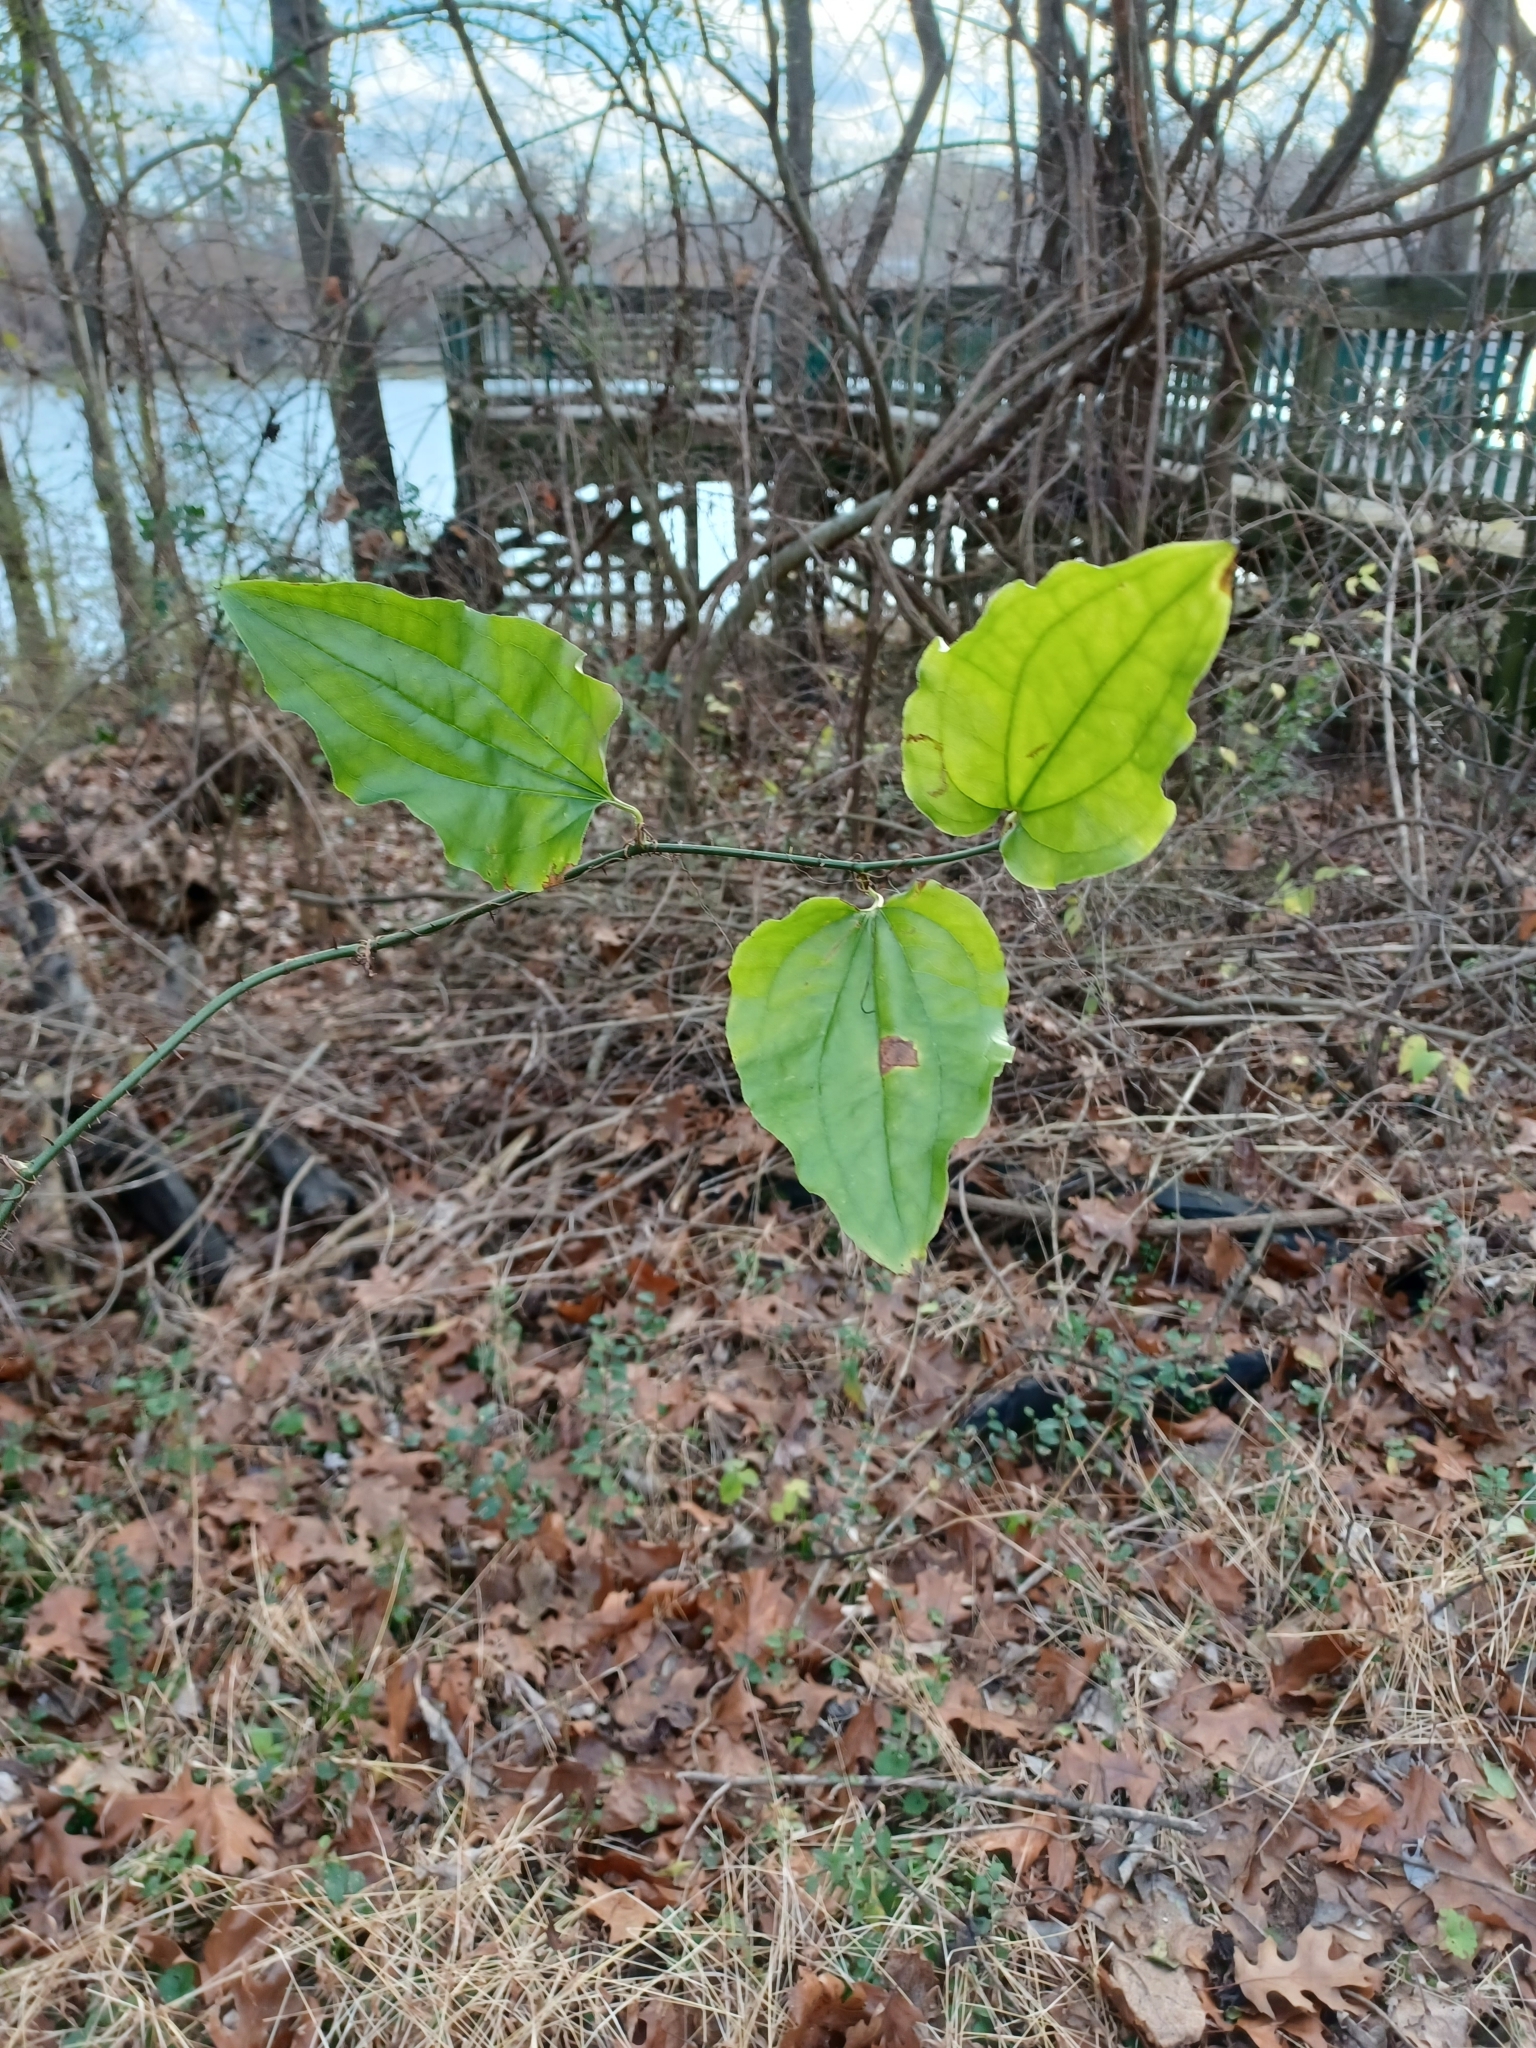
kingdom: Plantae
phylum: Tracheophyta
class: Liliopsida
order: Liliales
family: Smilacaceae
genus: Smilax
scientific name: Smilax tamnoides
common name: Hellfetter
